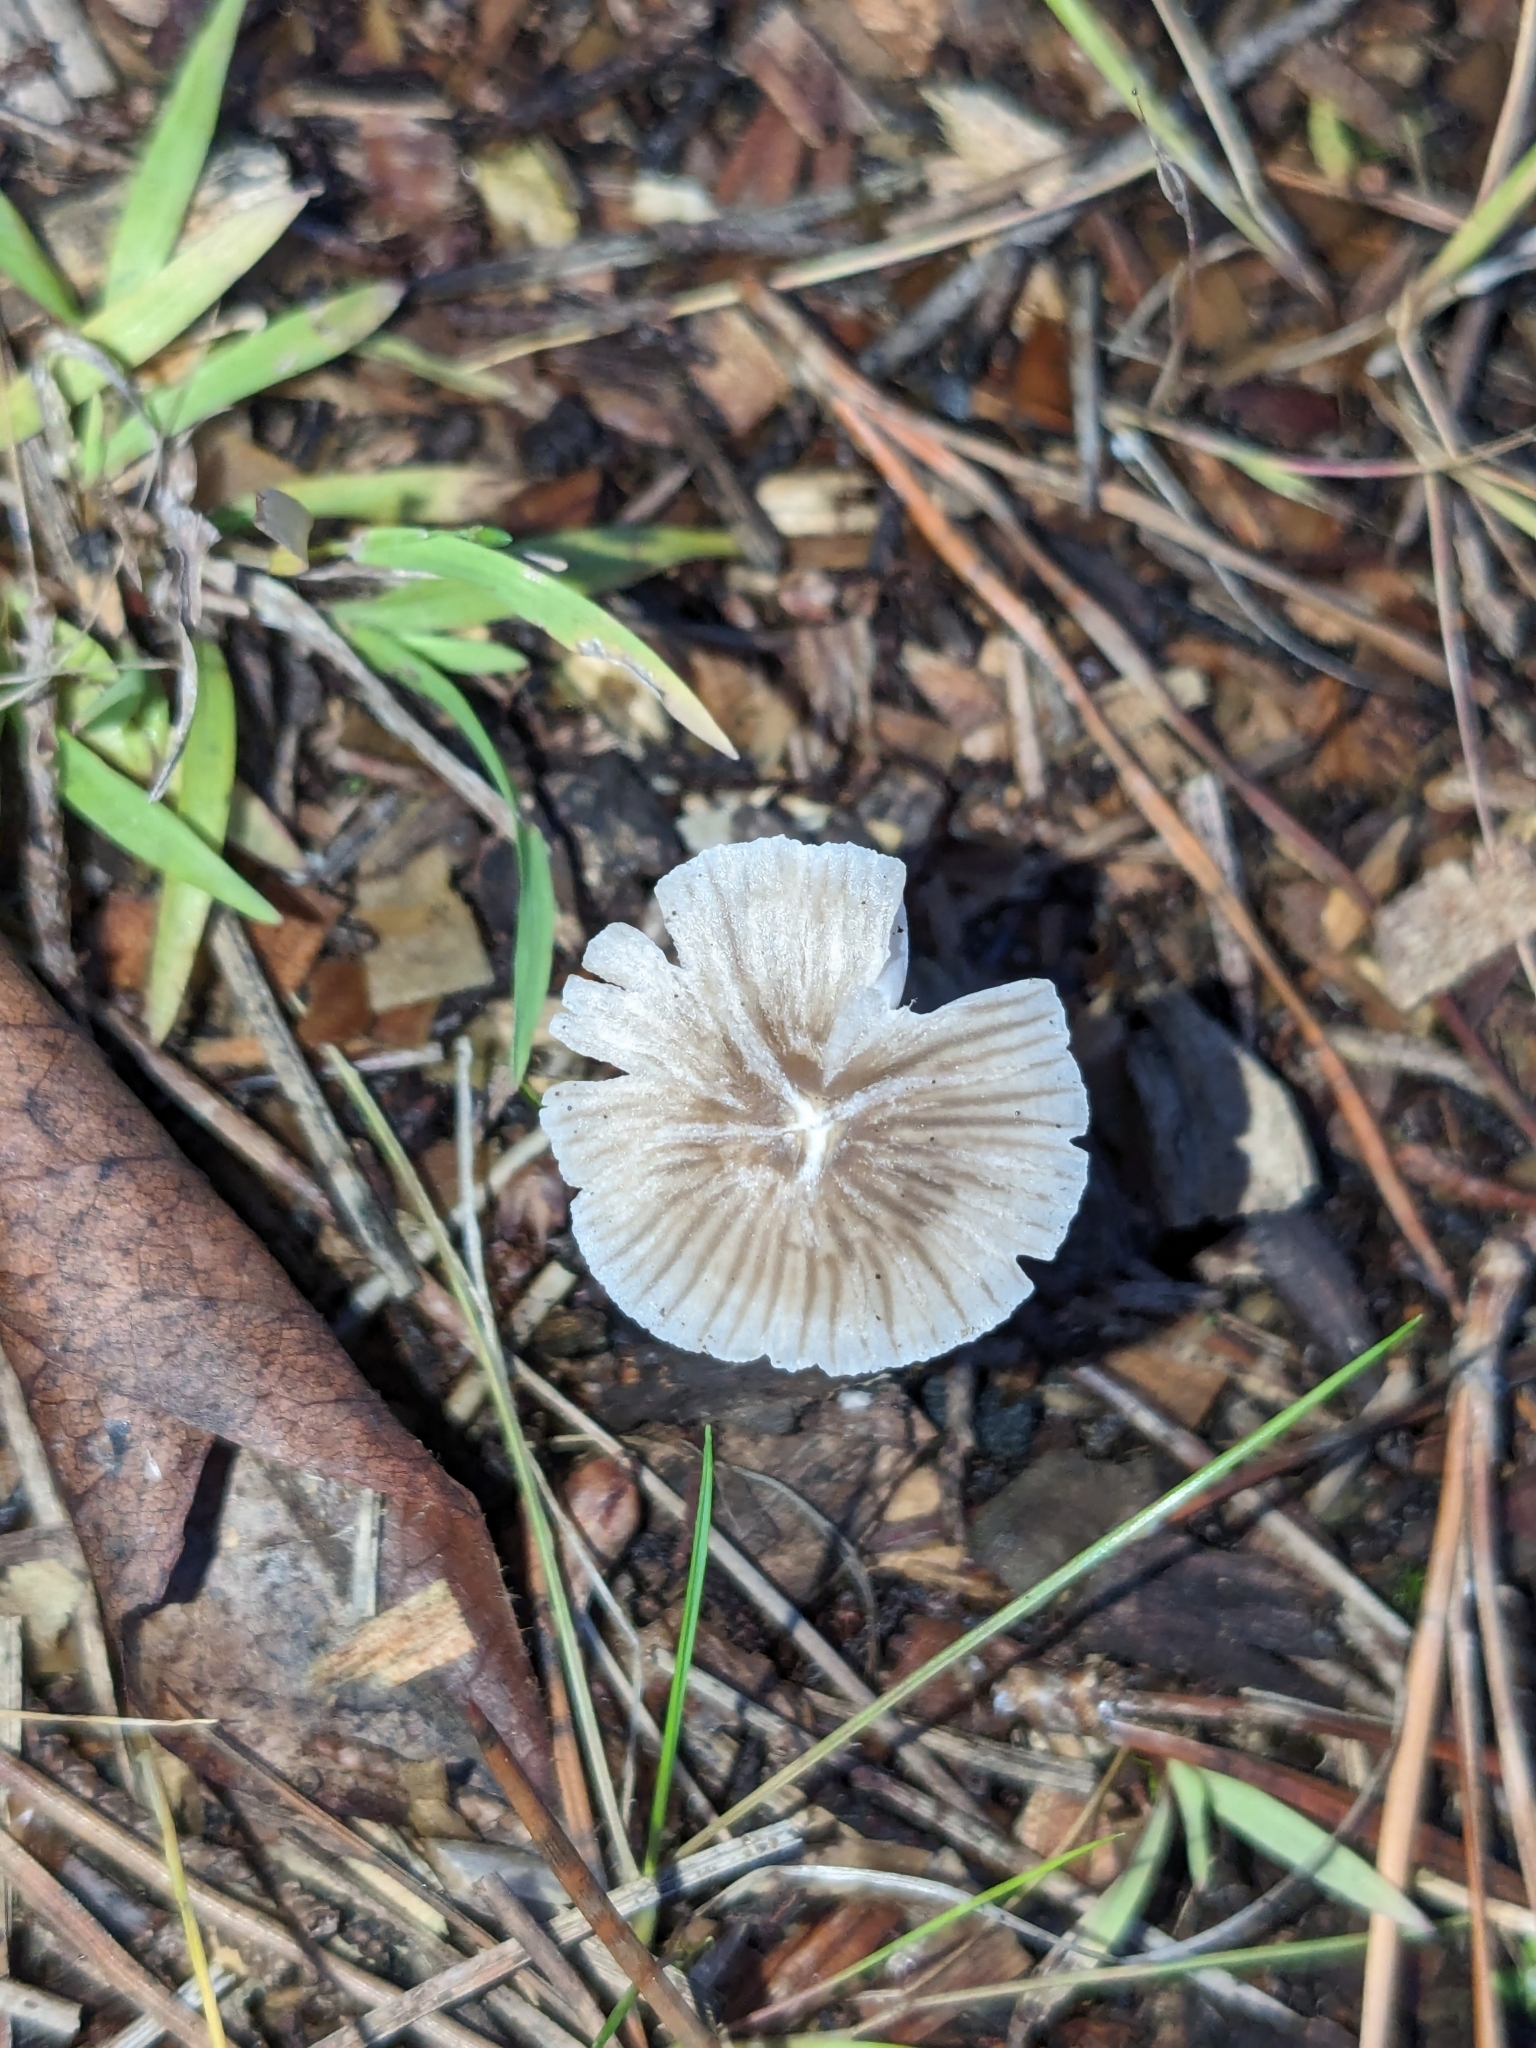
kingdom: Fungi
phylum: Basidiomycota
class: Agaricomycetes
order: Agaricales
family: Mycenaceae
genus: Mycena
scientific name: Mycena leptocephala
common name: Nitrous bonnet
